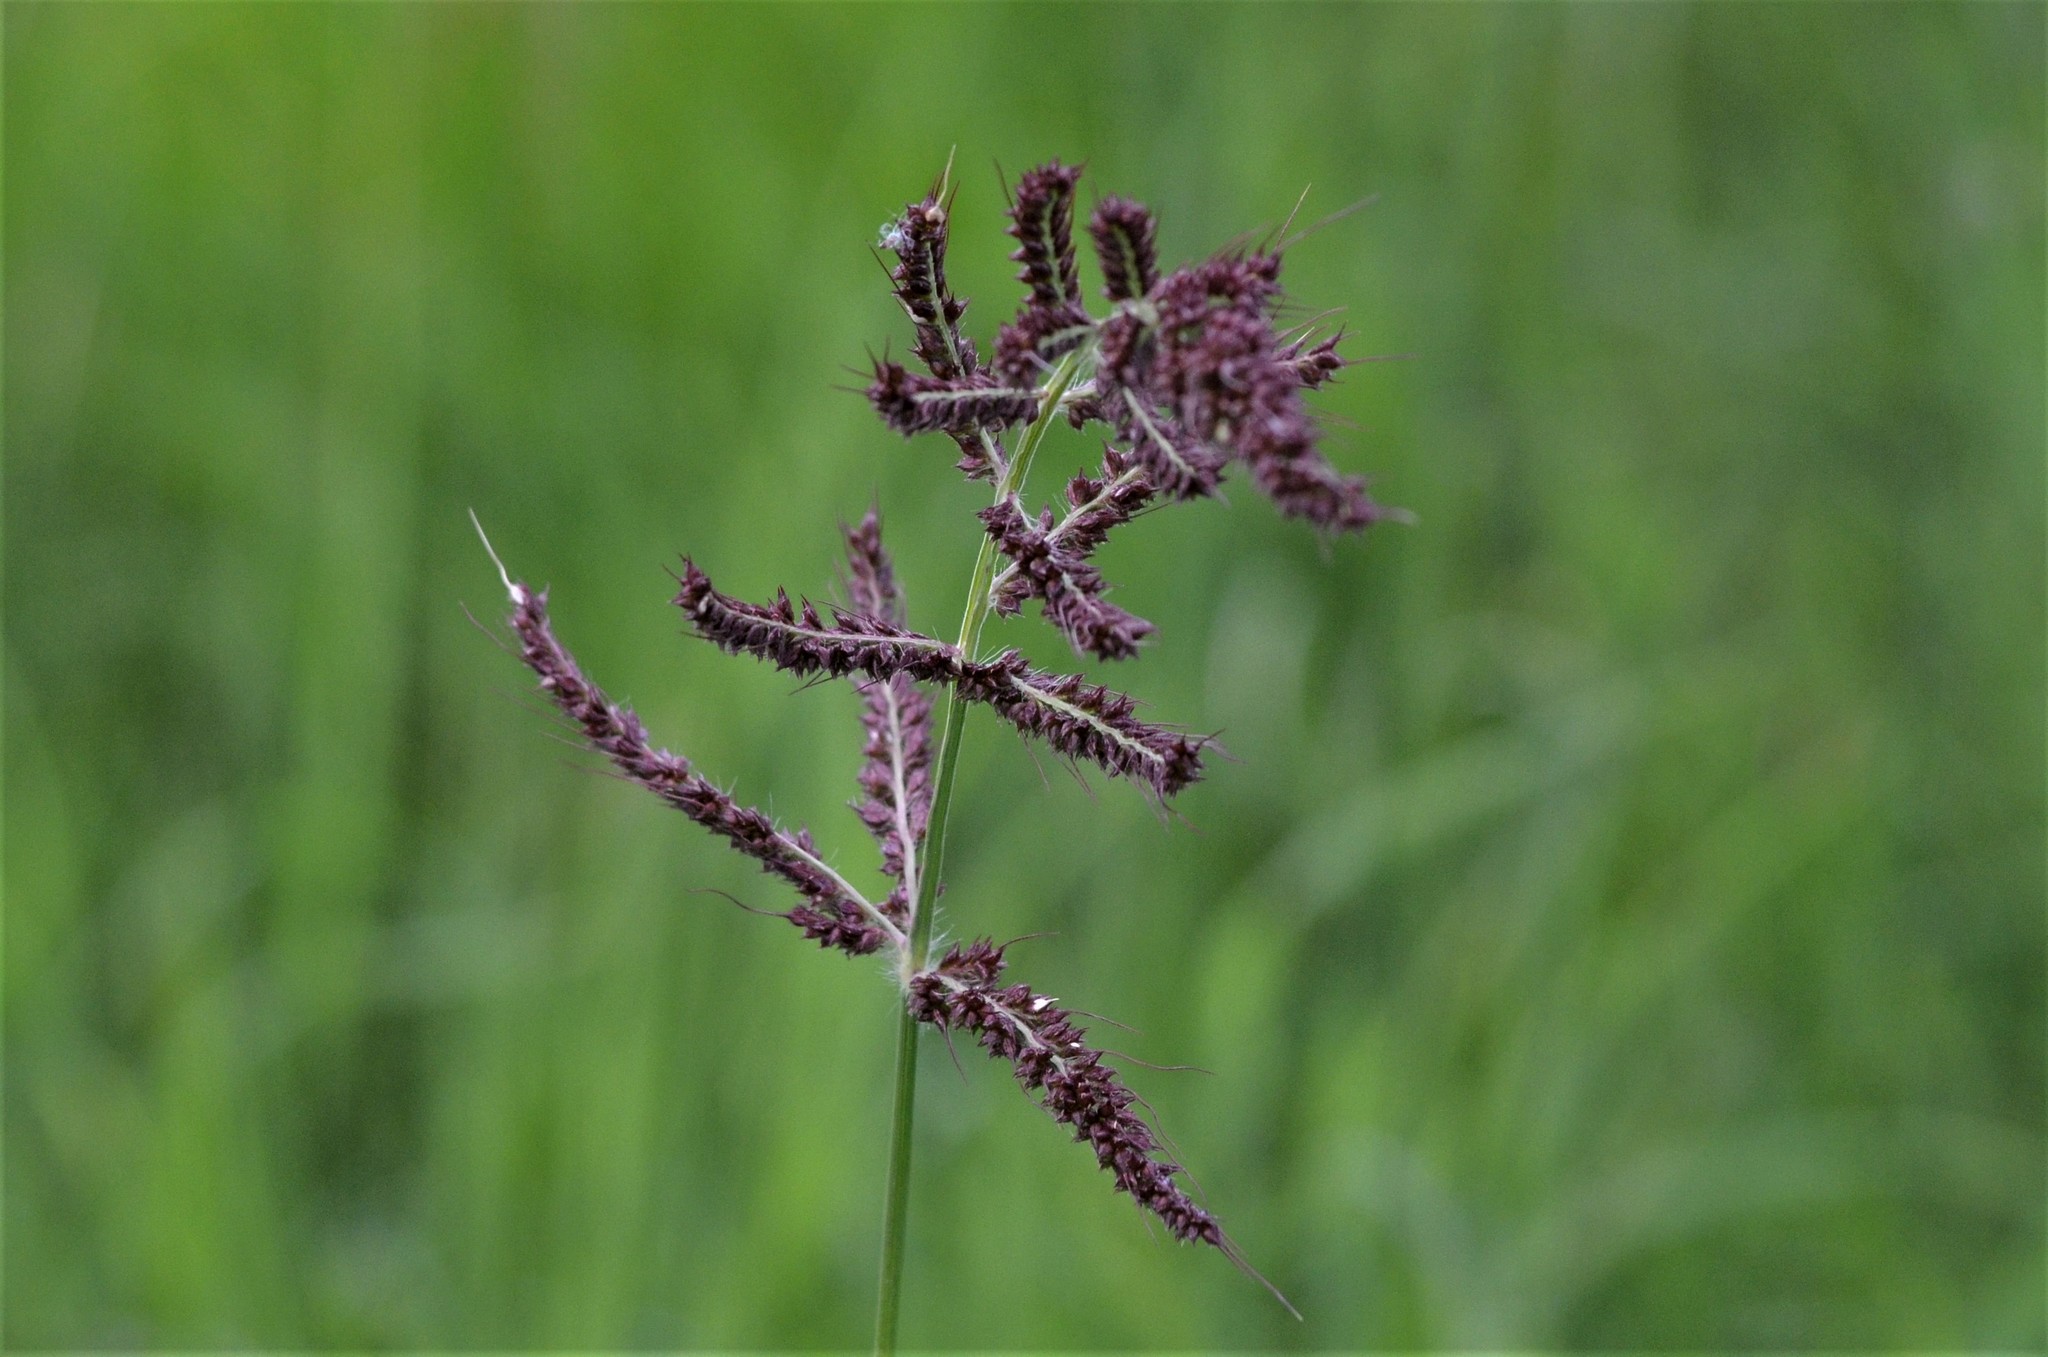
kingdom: Plantae
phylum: Tracheophyta
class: Liliopsida
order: Poales
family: Poaceae
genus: Echinochloa
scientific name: Echinochloa crus-galli
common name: Cockspur
